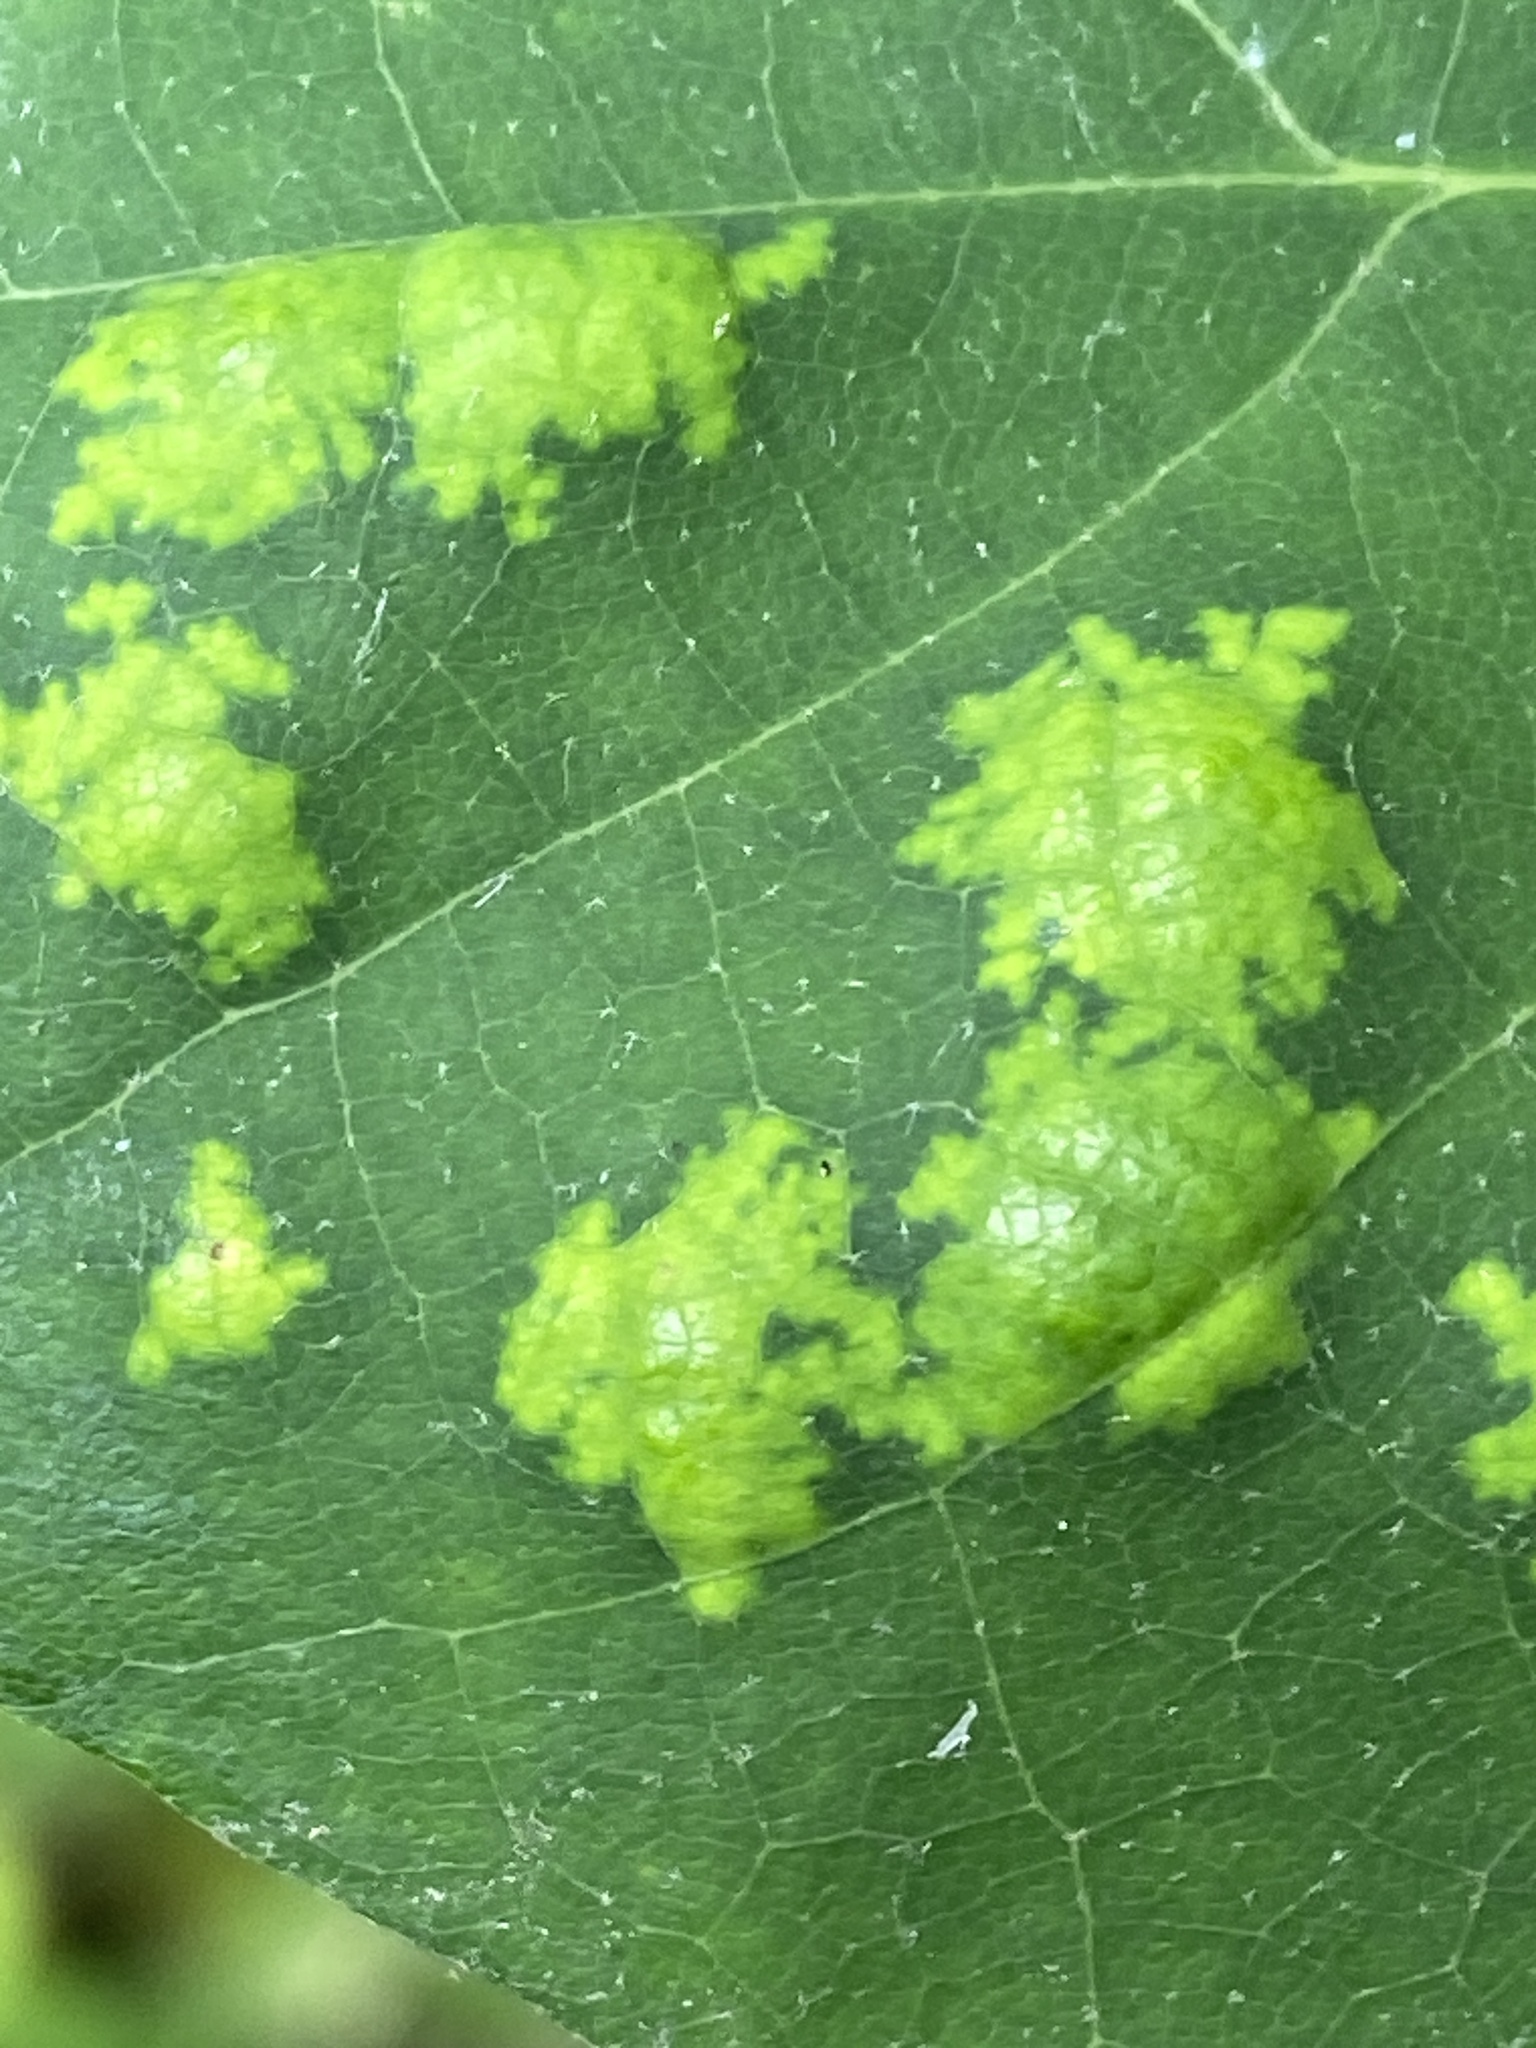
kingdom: Fungi
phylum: Ascomycota
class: Taphrinomycetes
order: Taphrinales
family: Taphrinaceae
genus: Taphrina
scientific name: Taphrina caerulescens
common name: Oak leaf blister
